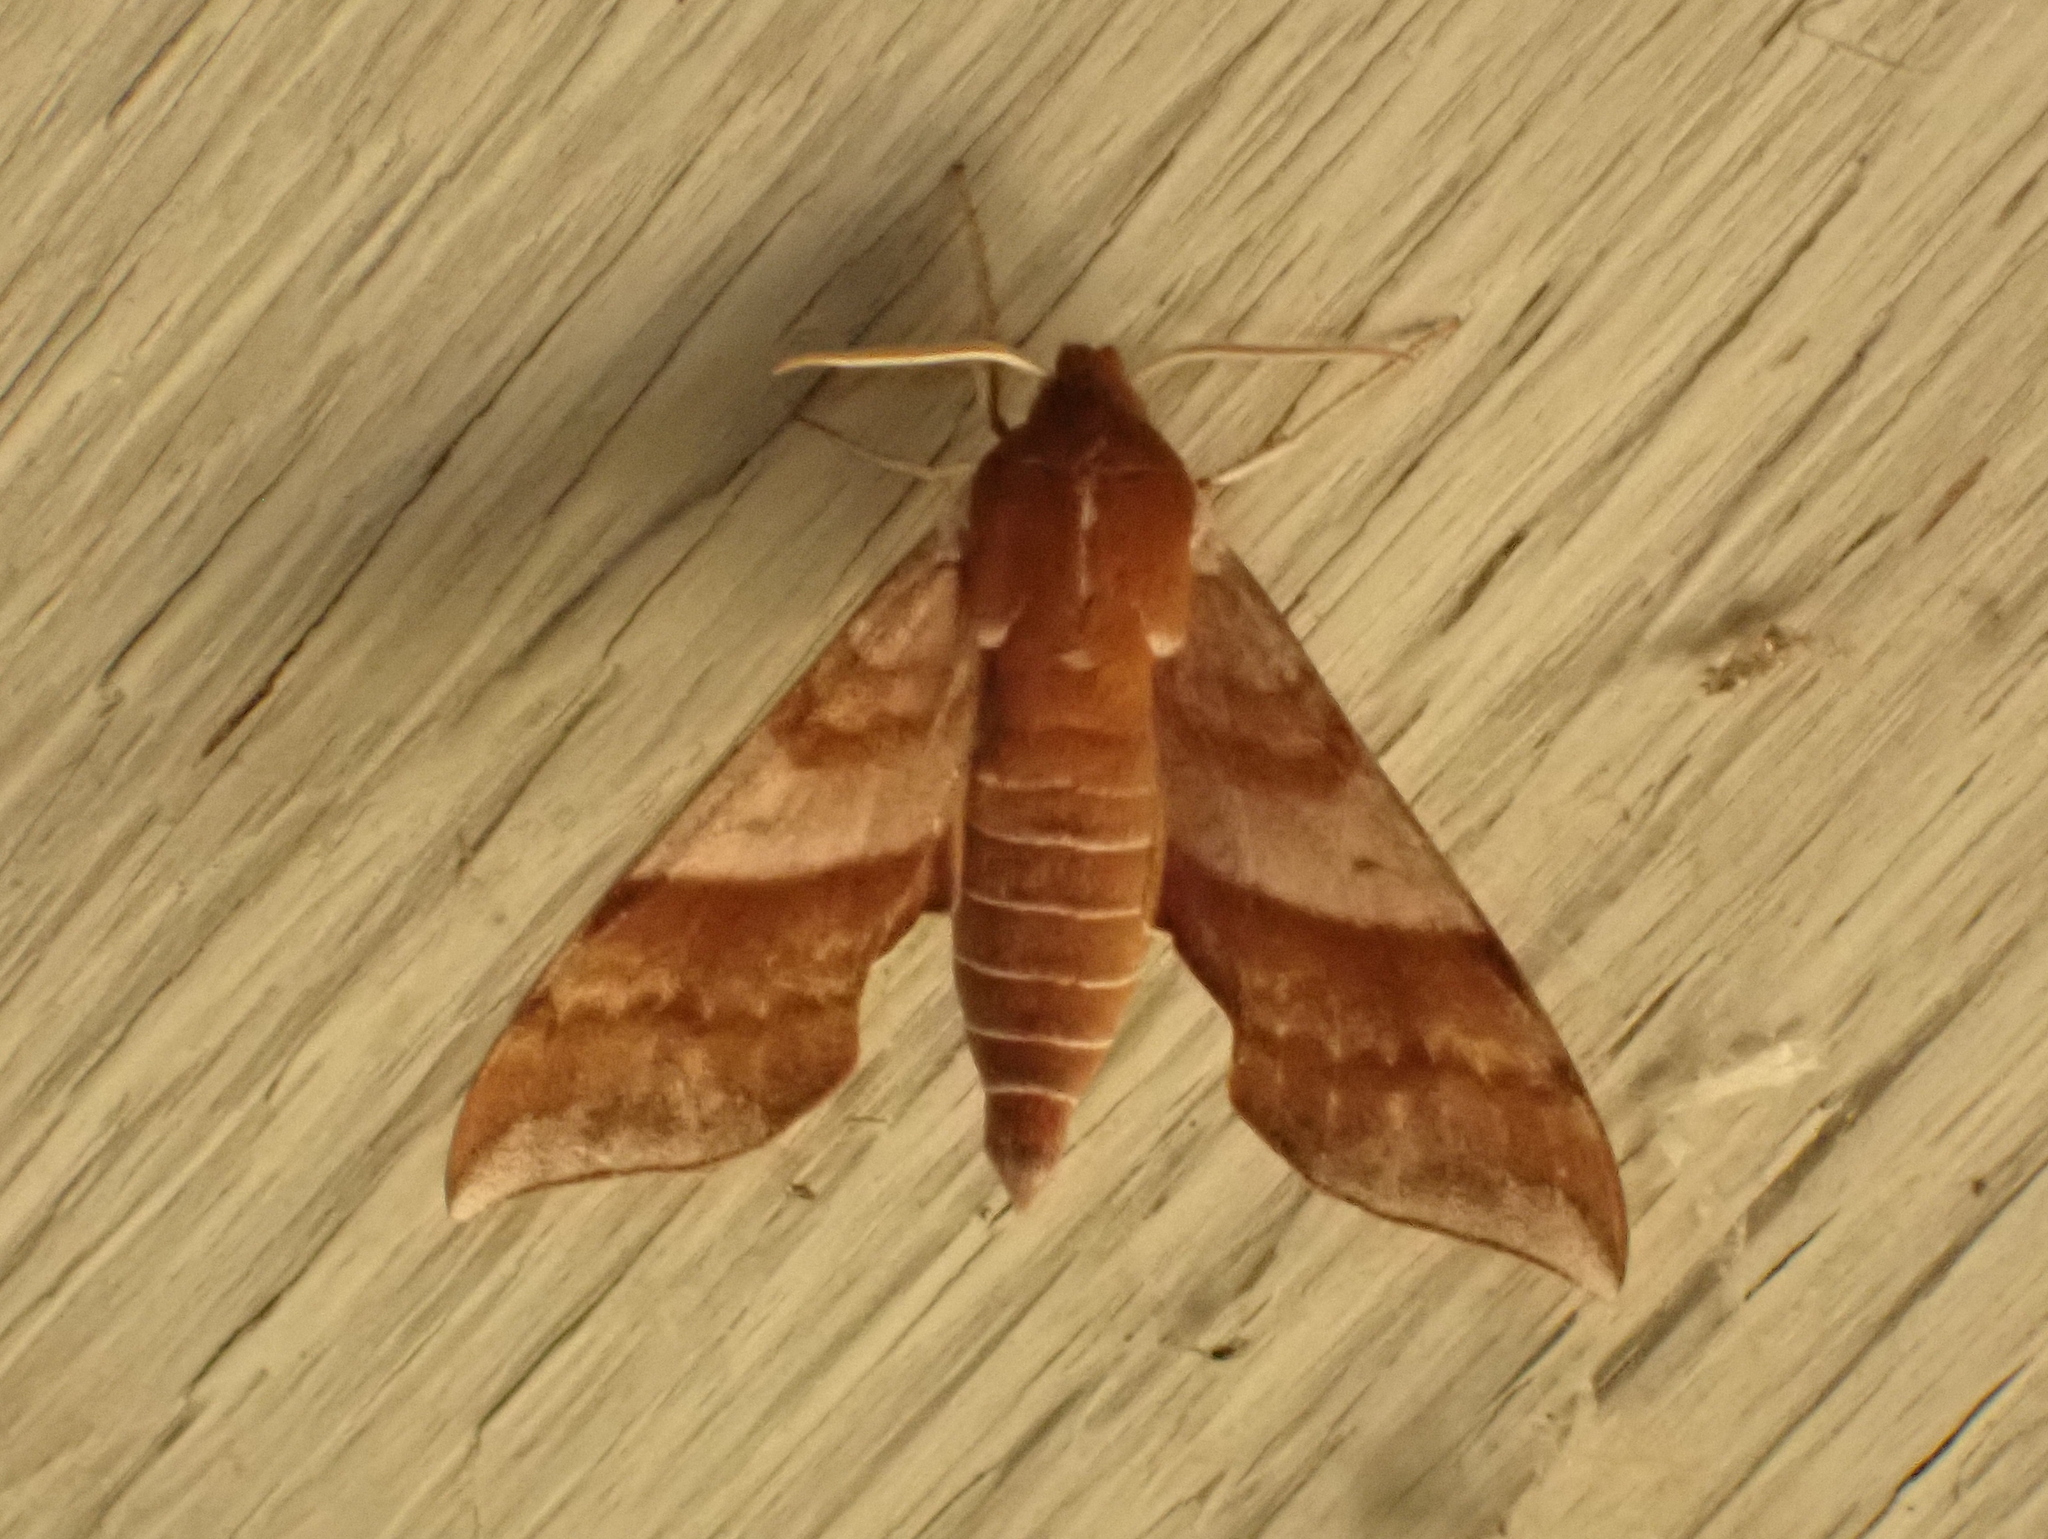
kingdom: Animalia
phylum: Arthropoda
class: Insecta
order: Lepidoptera
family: Sphingidae
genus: Darapsa
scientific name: Darapsa choerilus
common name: Azalea sphinx
